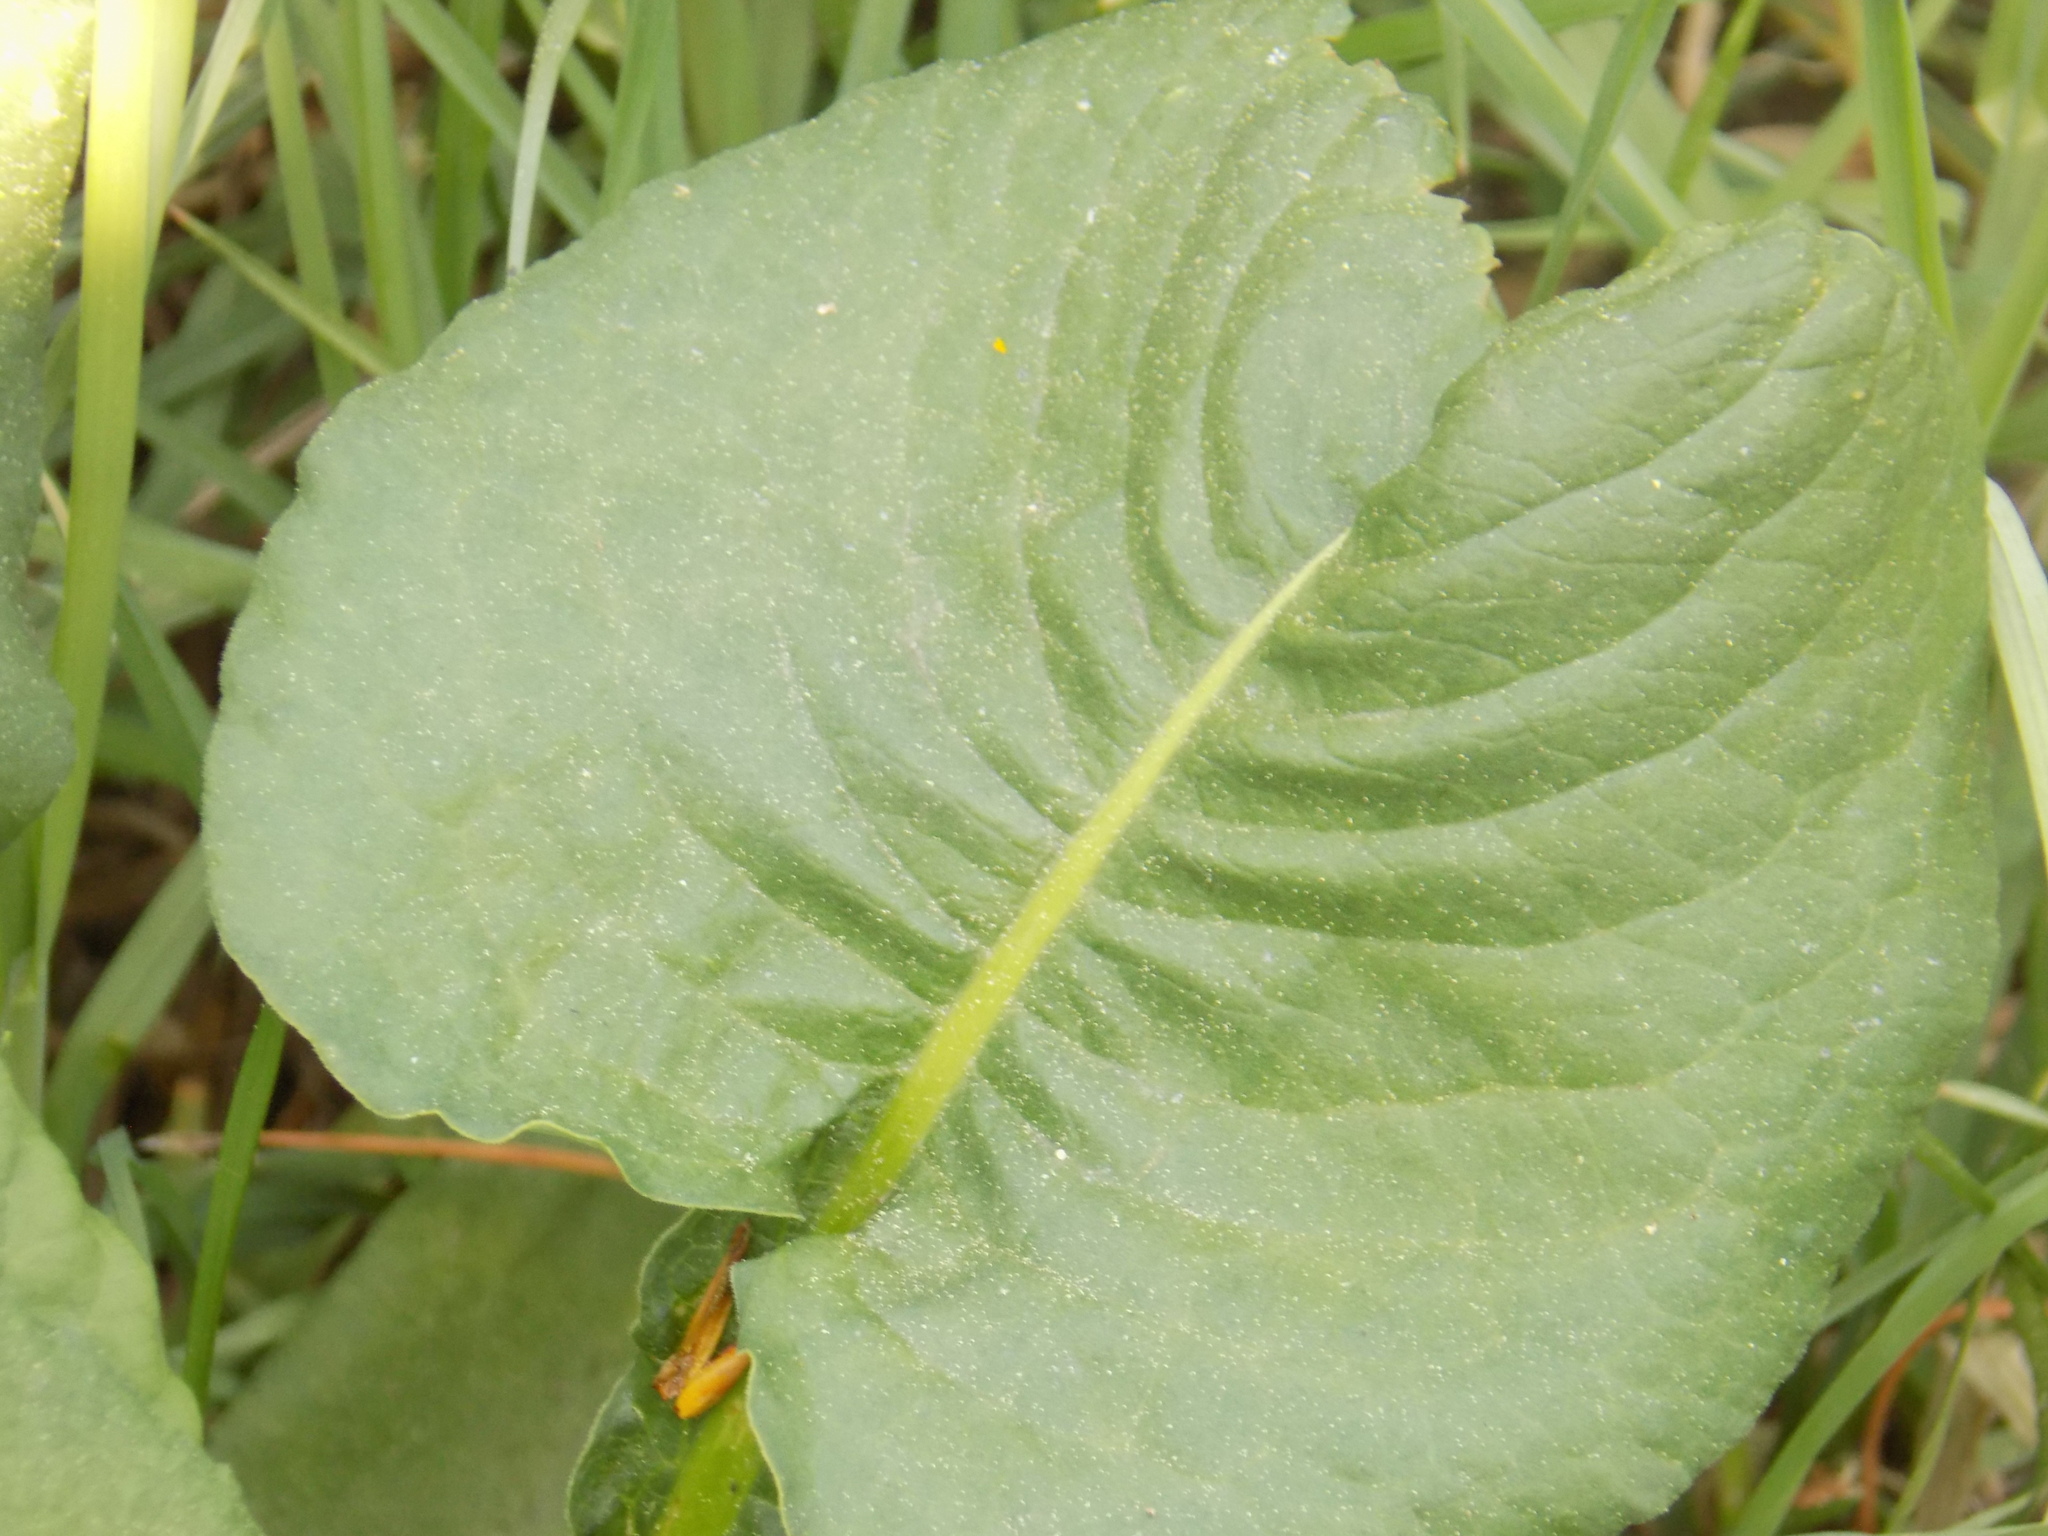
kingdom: Plantae
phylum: Tracheophyta
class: Magnoliopsida
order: Caryophyllales
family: Polygonaceae
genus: Bistorta
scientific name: Bistorta officinalis
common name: Common bistort
